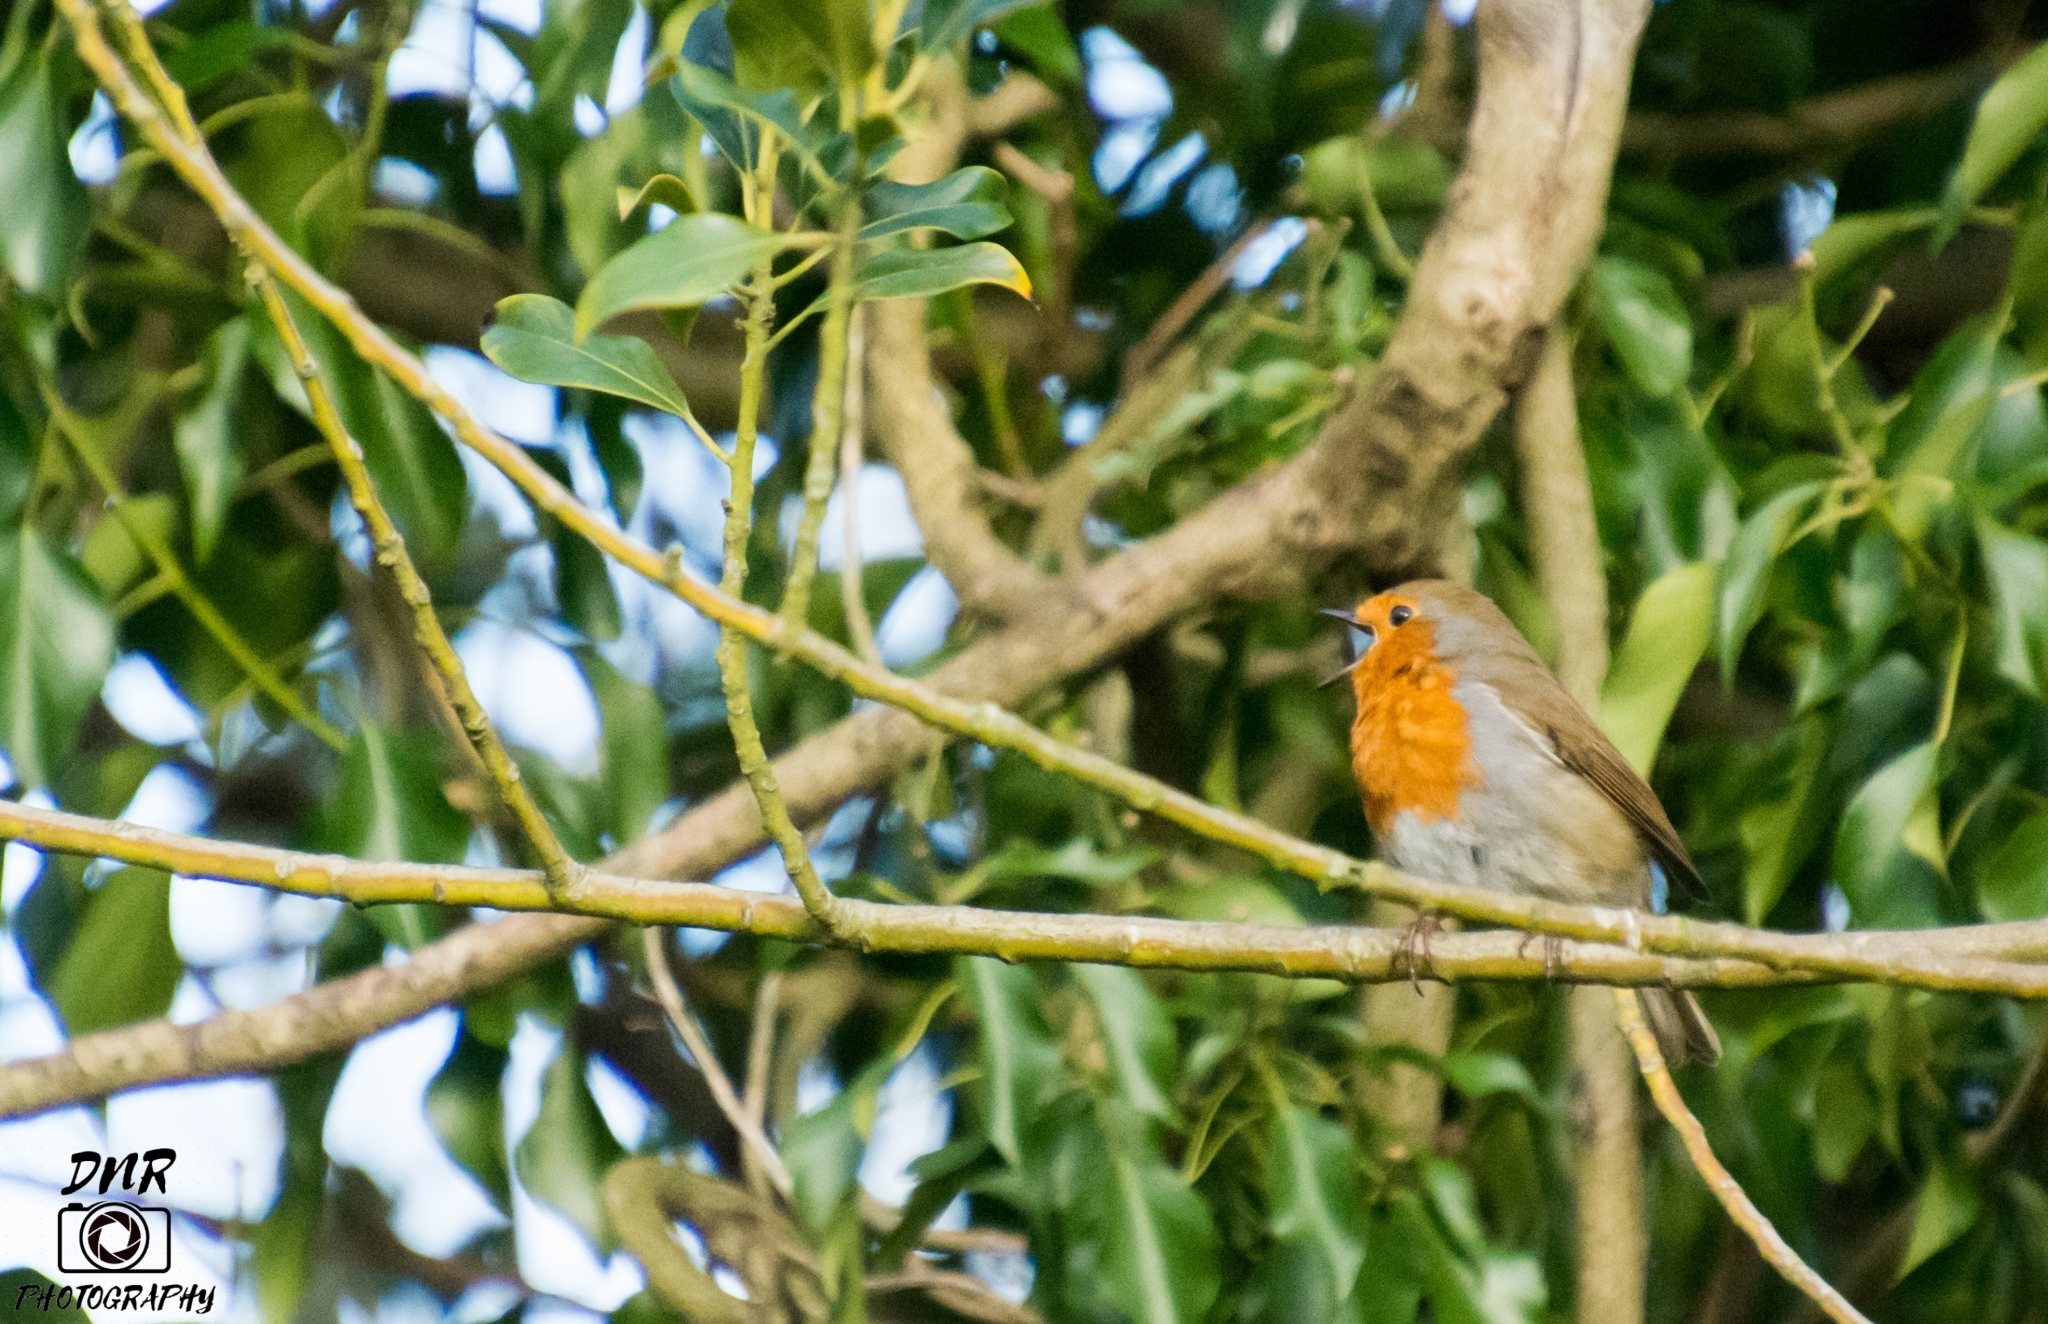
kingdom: Animalia
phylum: Chordata
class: Aves
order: Passeriformes
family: Muscicapidae
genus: Erithacus
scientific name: Erithacus rubecula
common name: European robin
